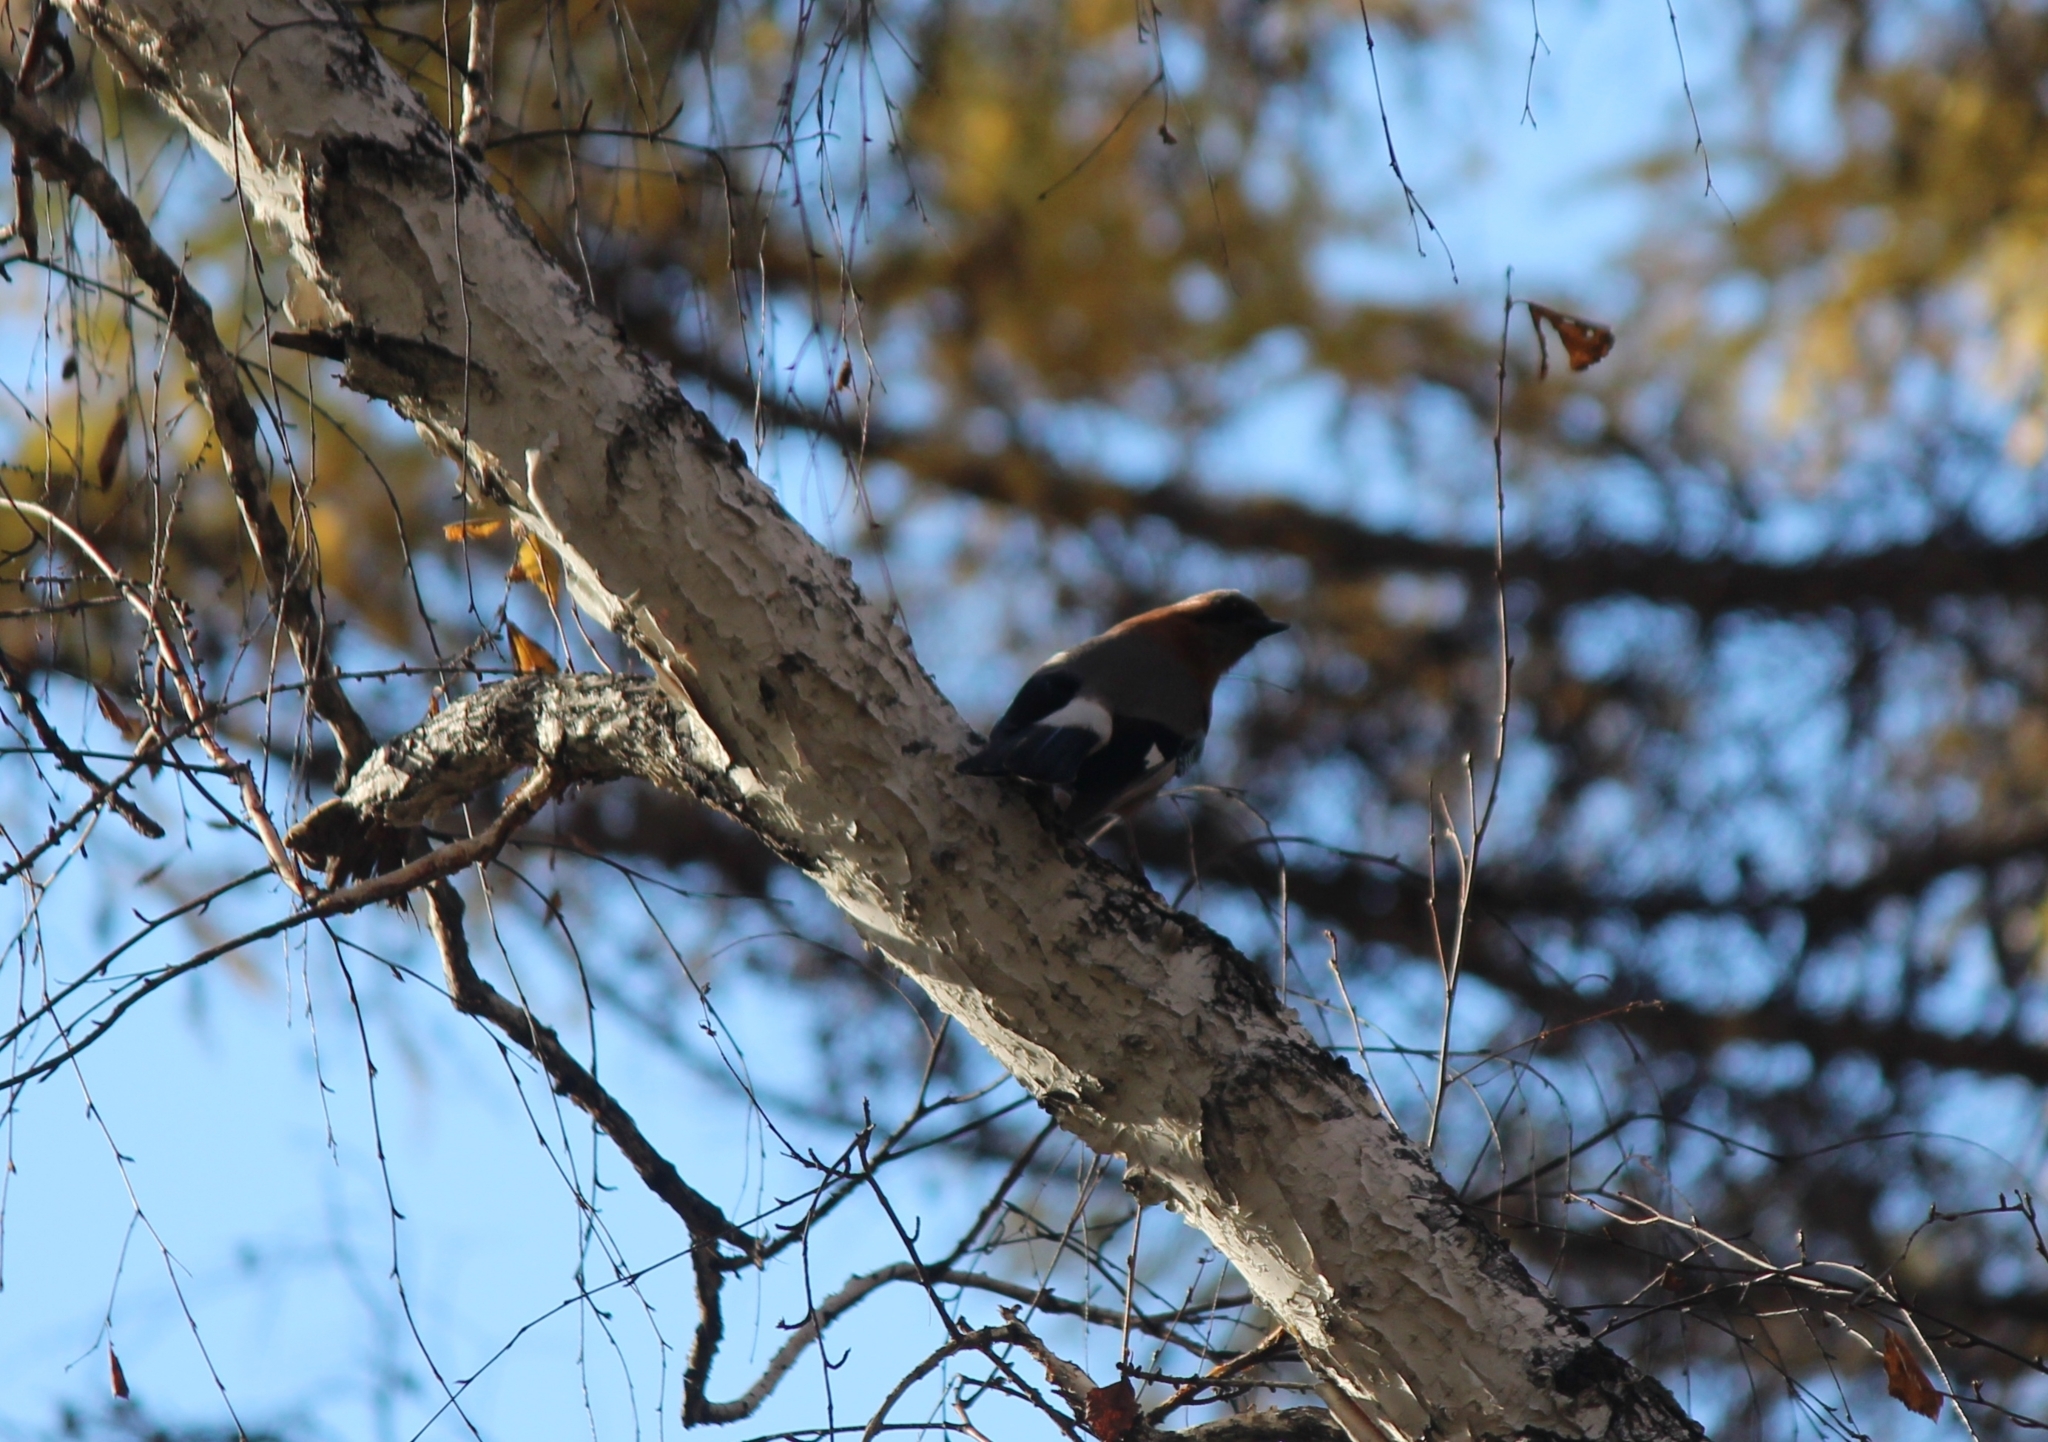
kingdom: Animalia
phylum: Chordata
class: Aves
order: Passeriformes
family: Corvidae
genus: Garrulus
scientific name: Garrulus glandarius
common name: Eurasian jay
